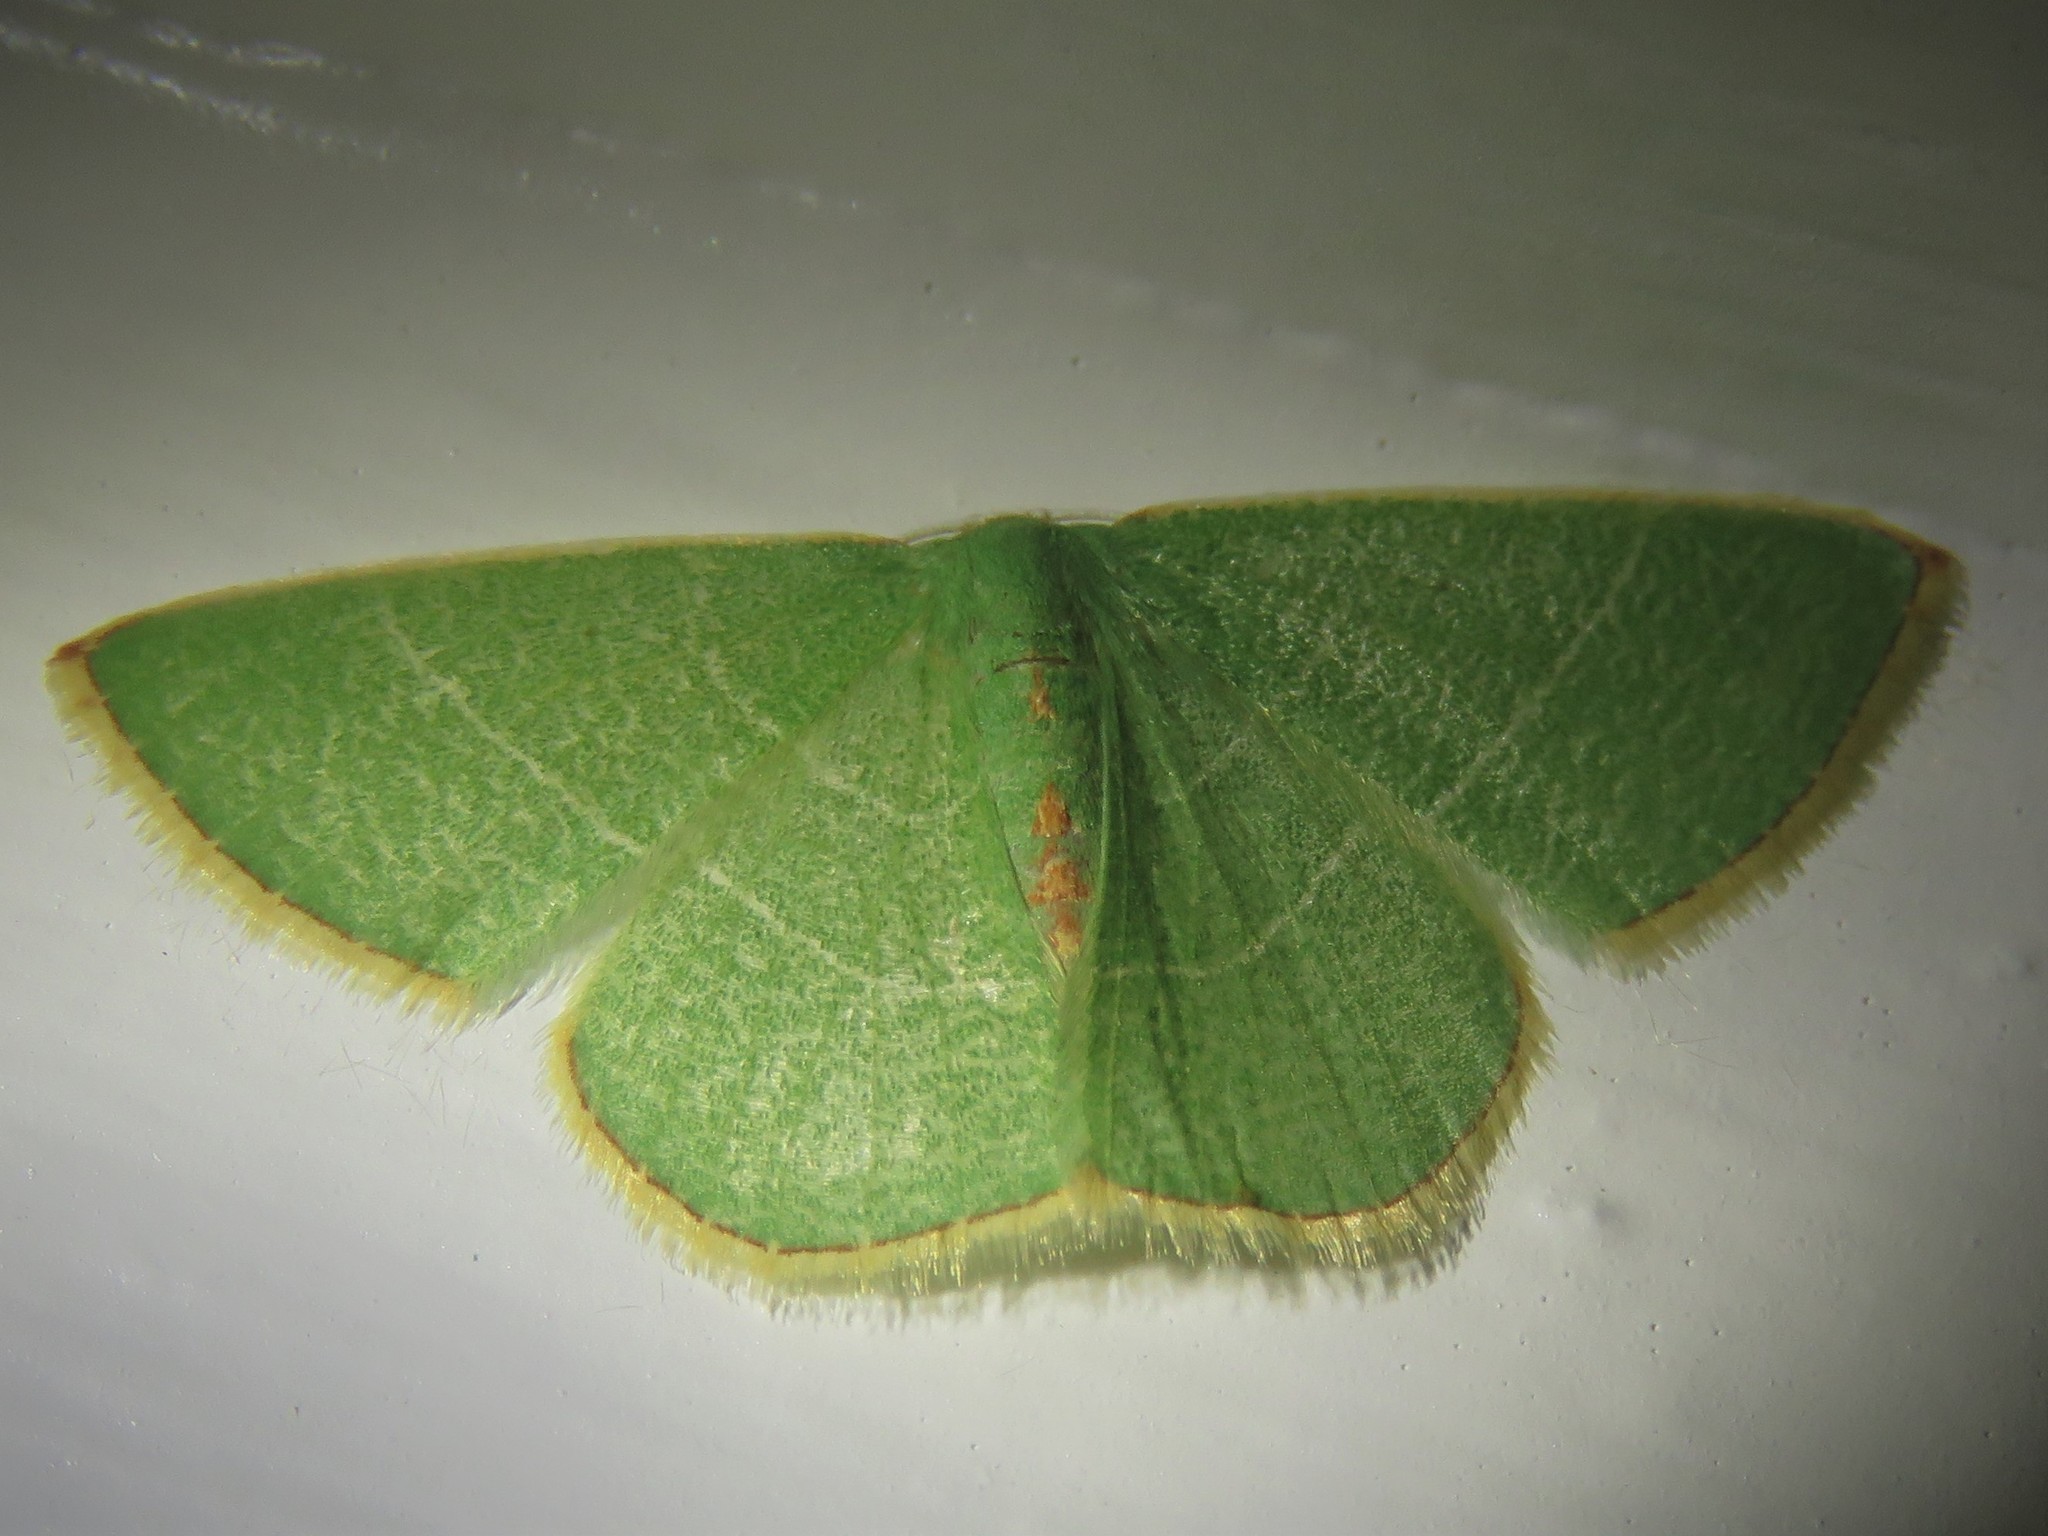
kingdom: Animalia
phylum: Arthropoda
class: Insecta
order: Lepidoptera
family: Geometridae
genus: Nemoria
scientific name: Nemoria bifilata
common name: White-barred emerald moth
